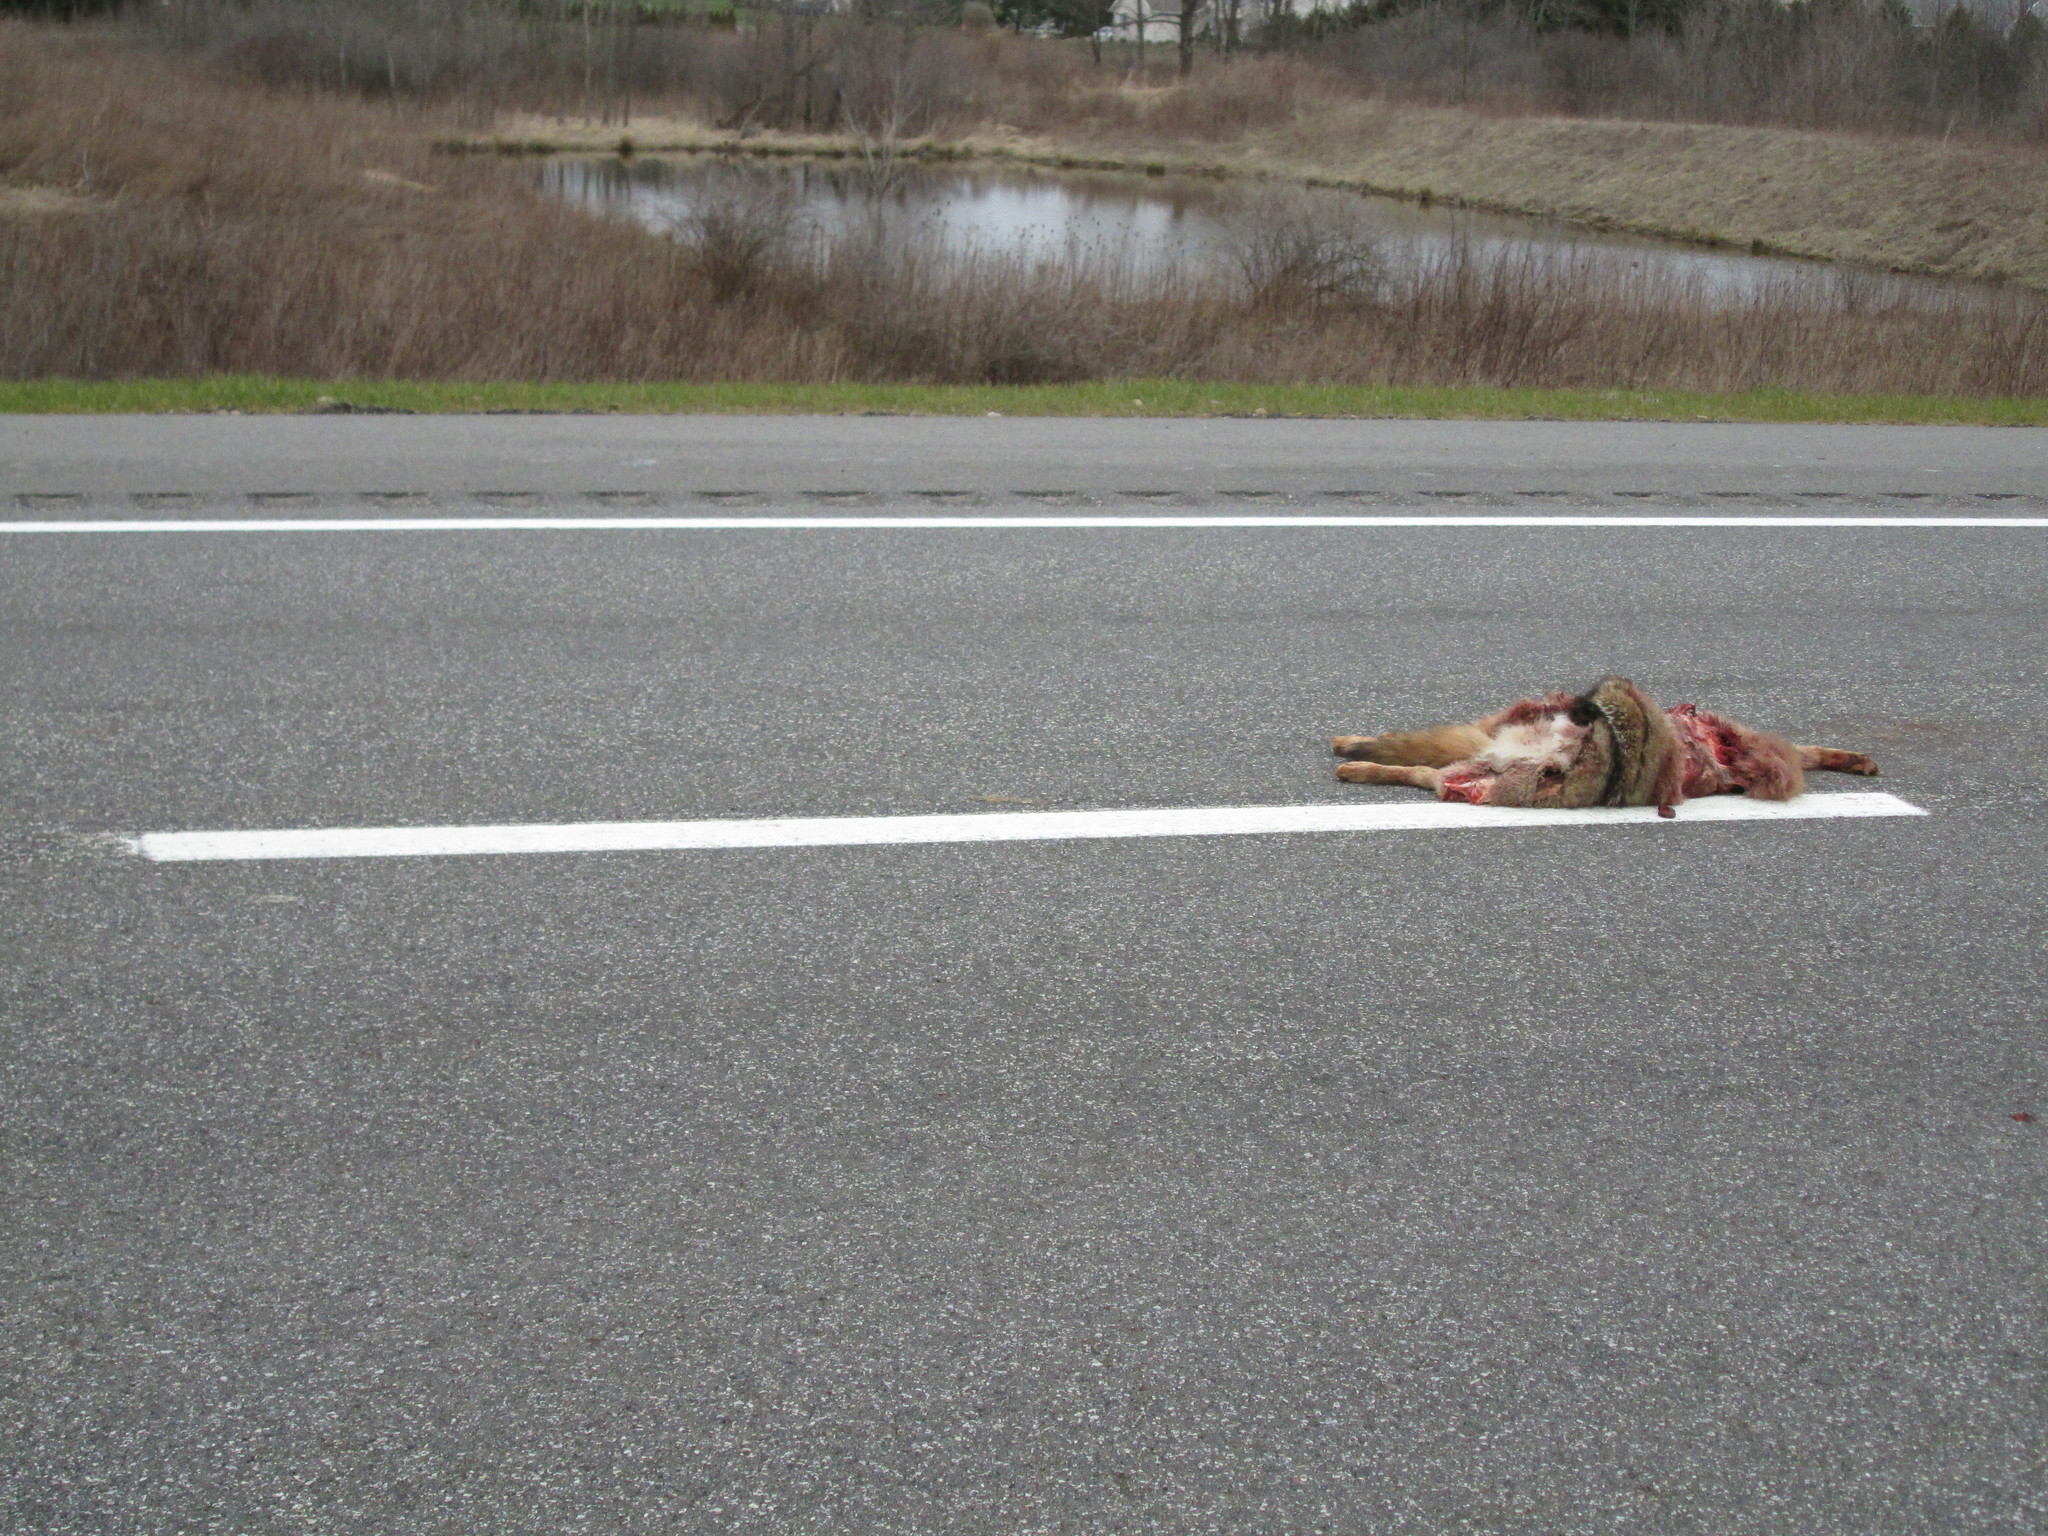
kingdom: Animalia
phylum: Chordata
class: Mammalia
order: Carnivora
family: Canidae
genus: Canis
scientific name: Canis latrans
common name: Coyote
